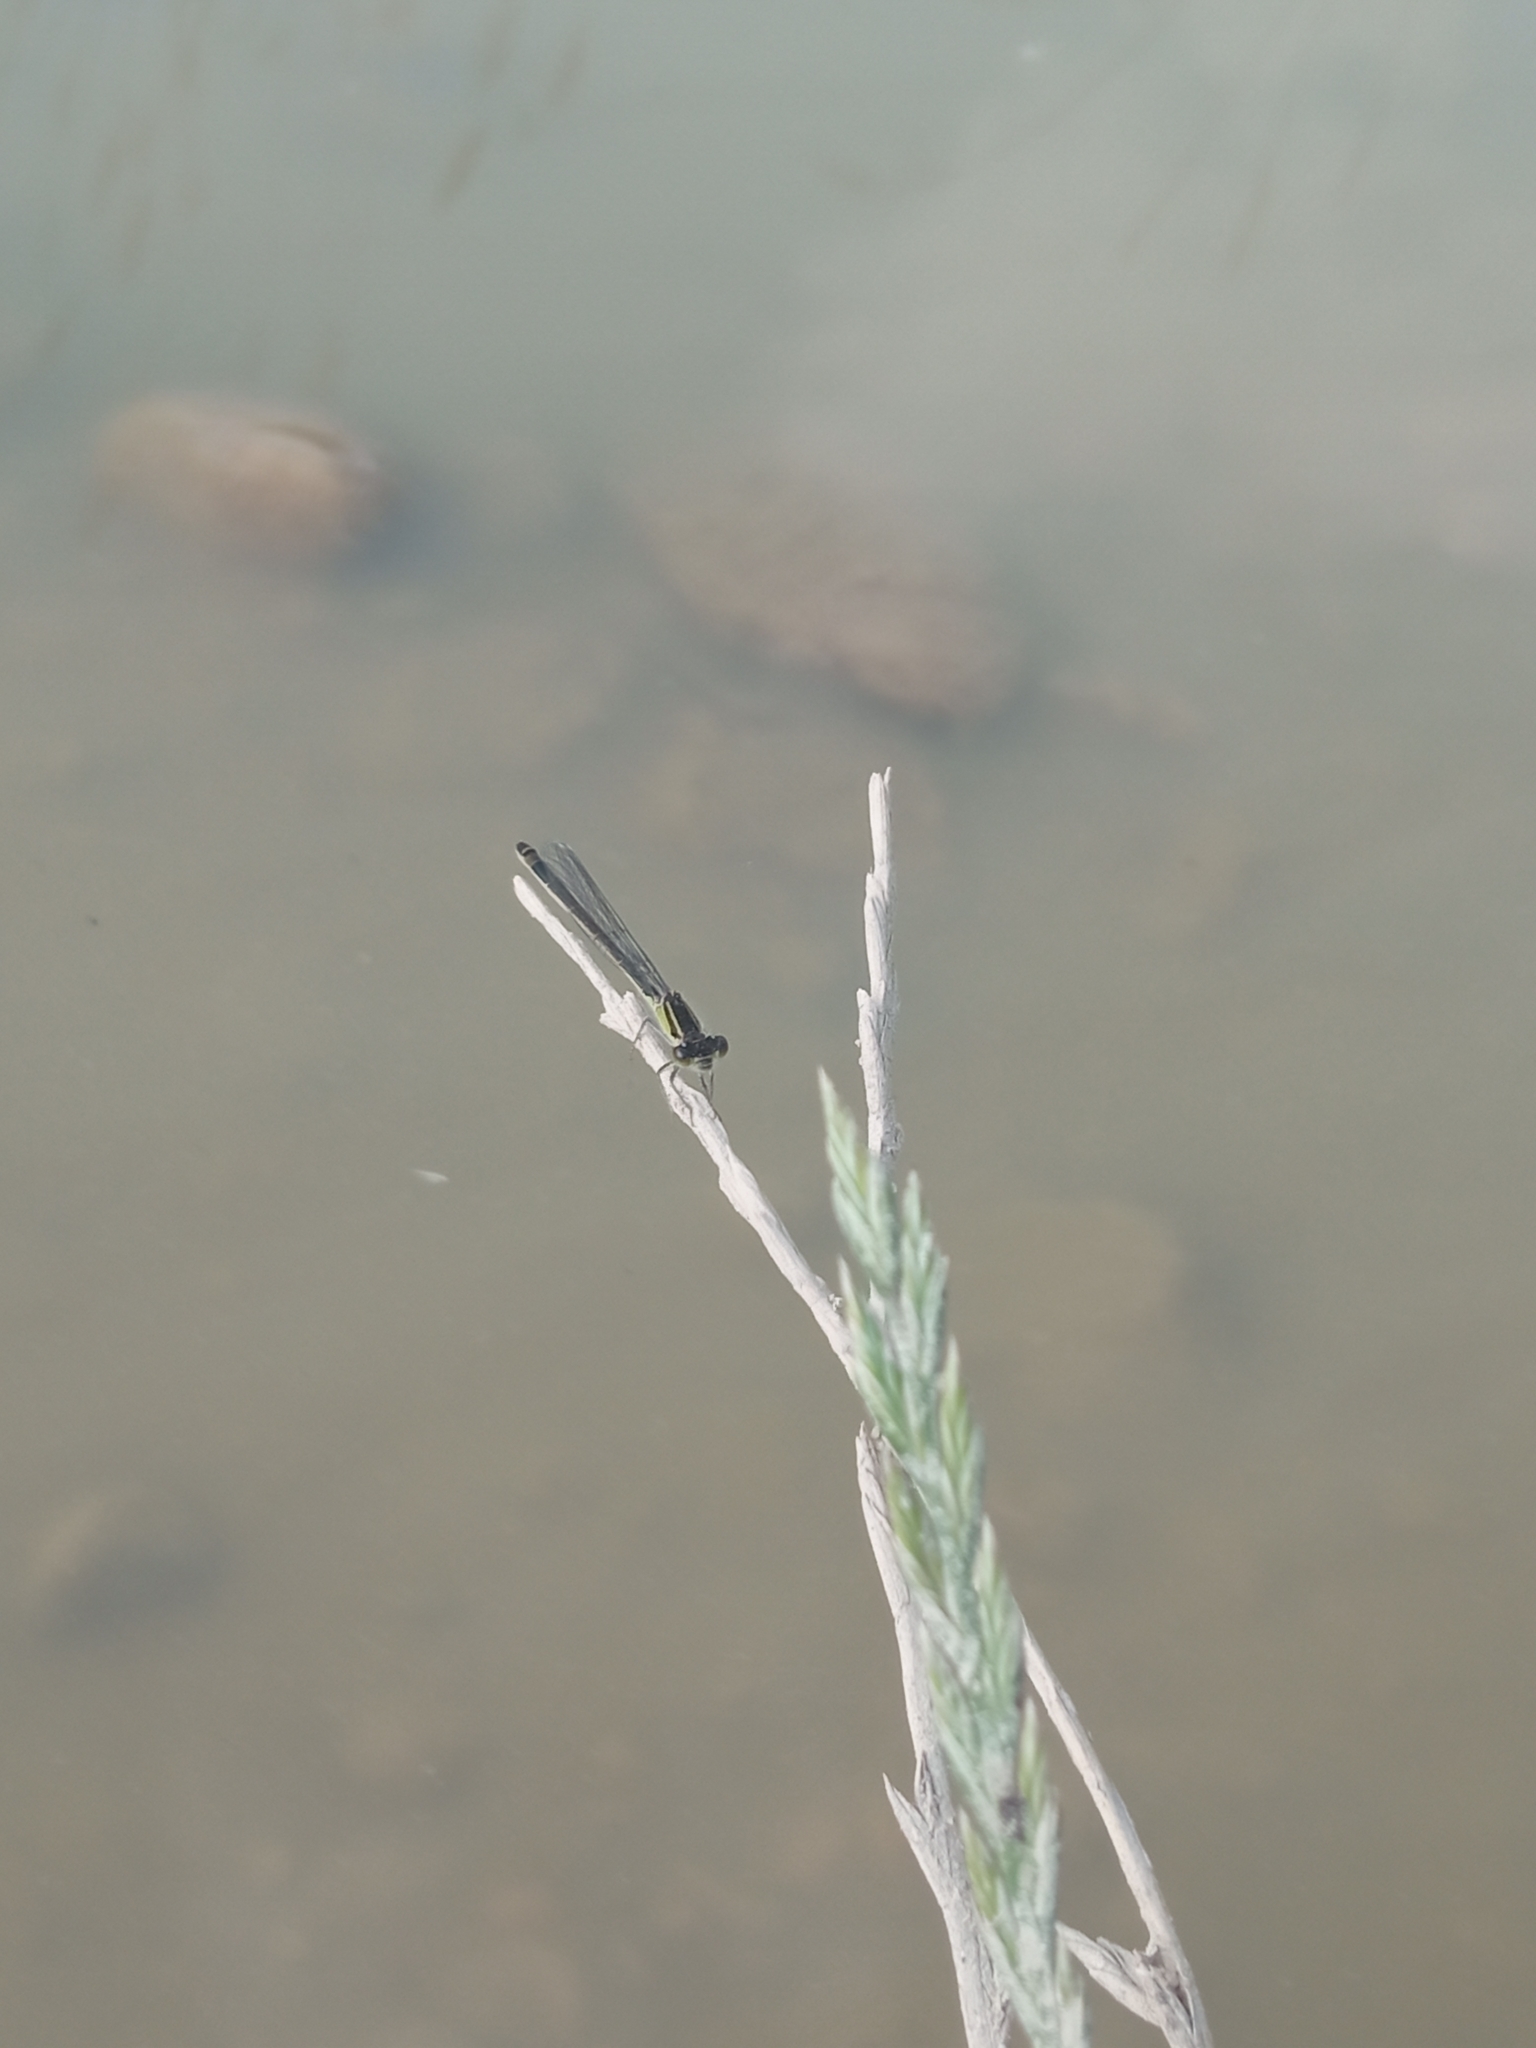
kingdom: Animalia
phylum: Arthropoda
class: Insecta
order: Odonata
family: Coenagrionidae
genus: Ischnura
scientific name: Ischnura elegans
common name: Blue-tailed damselfly
